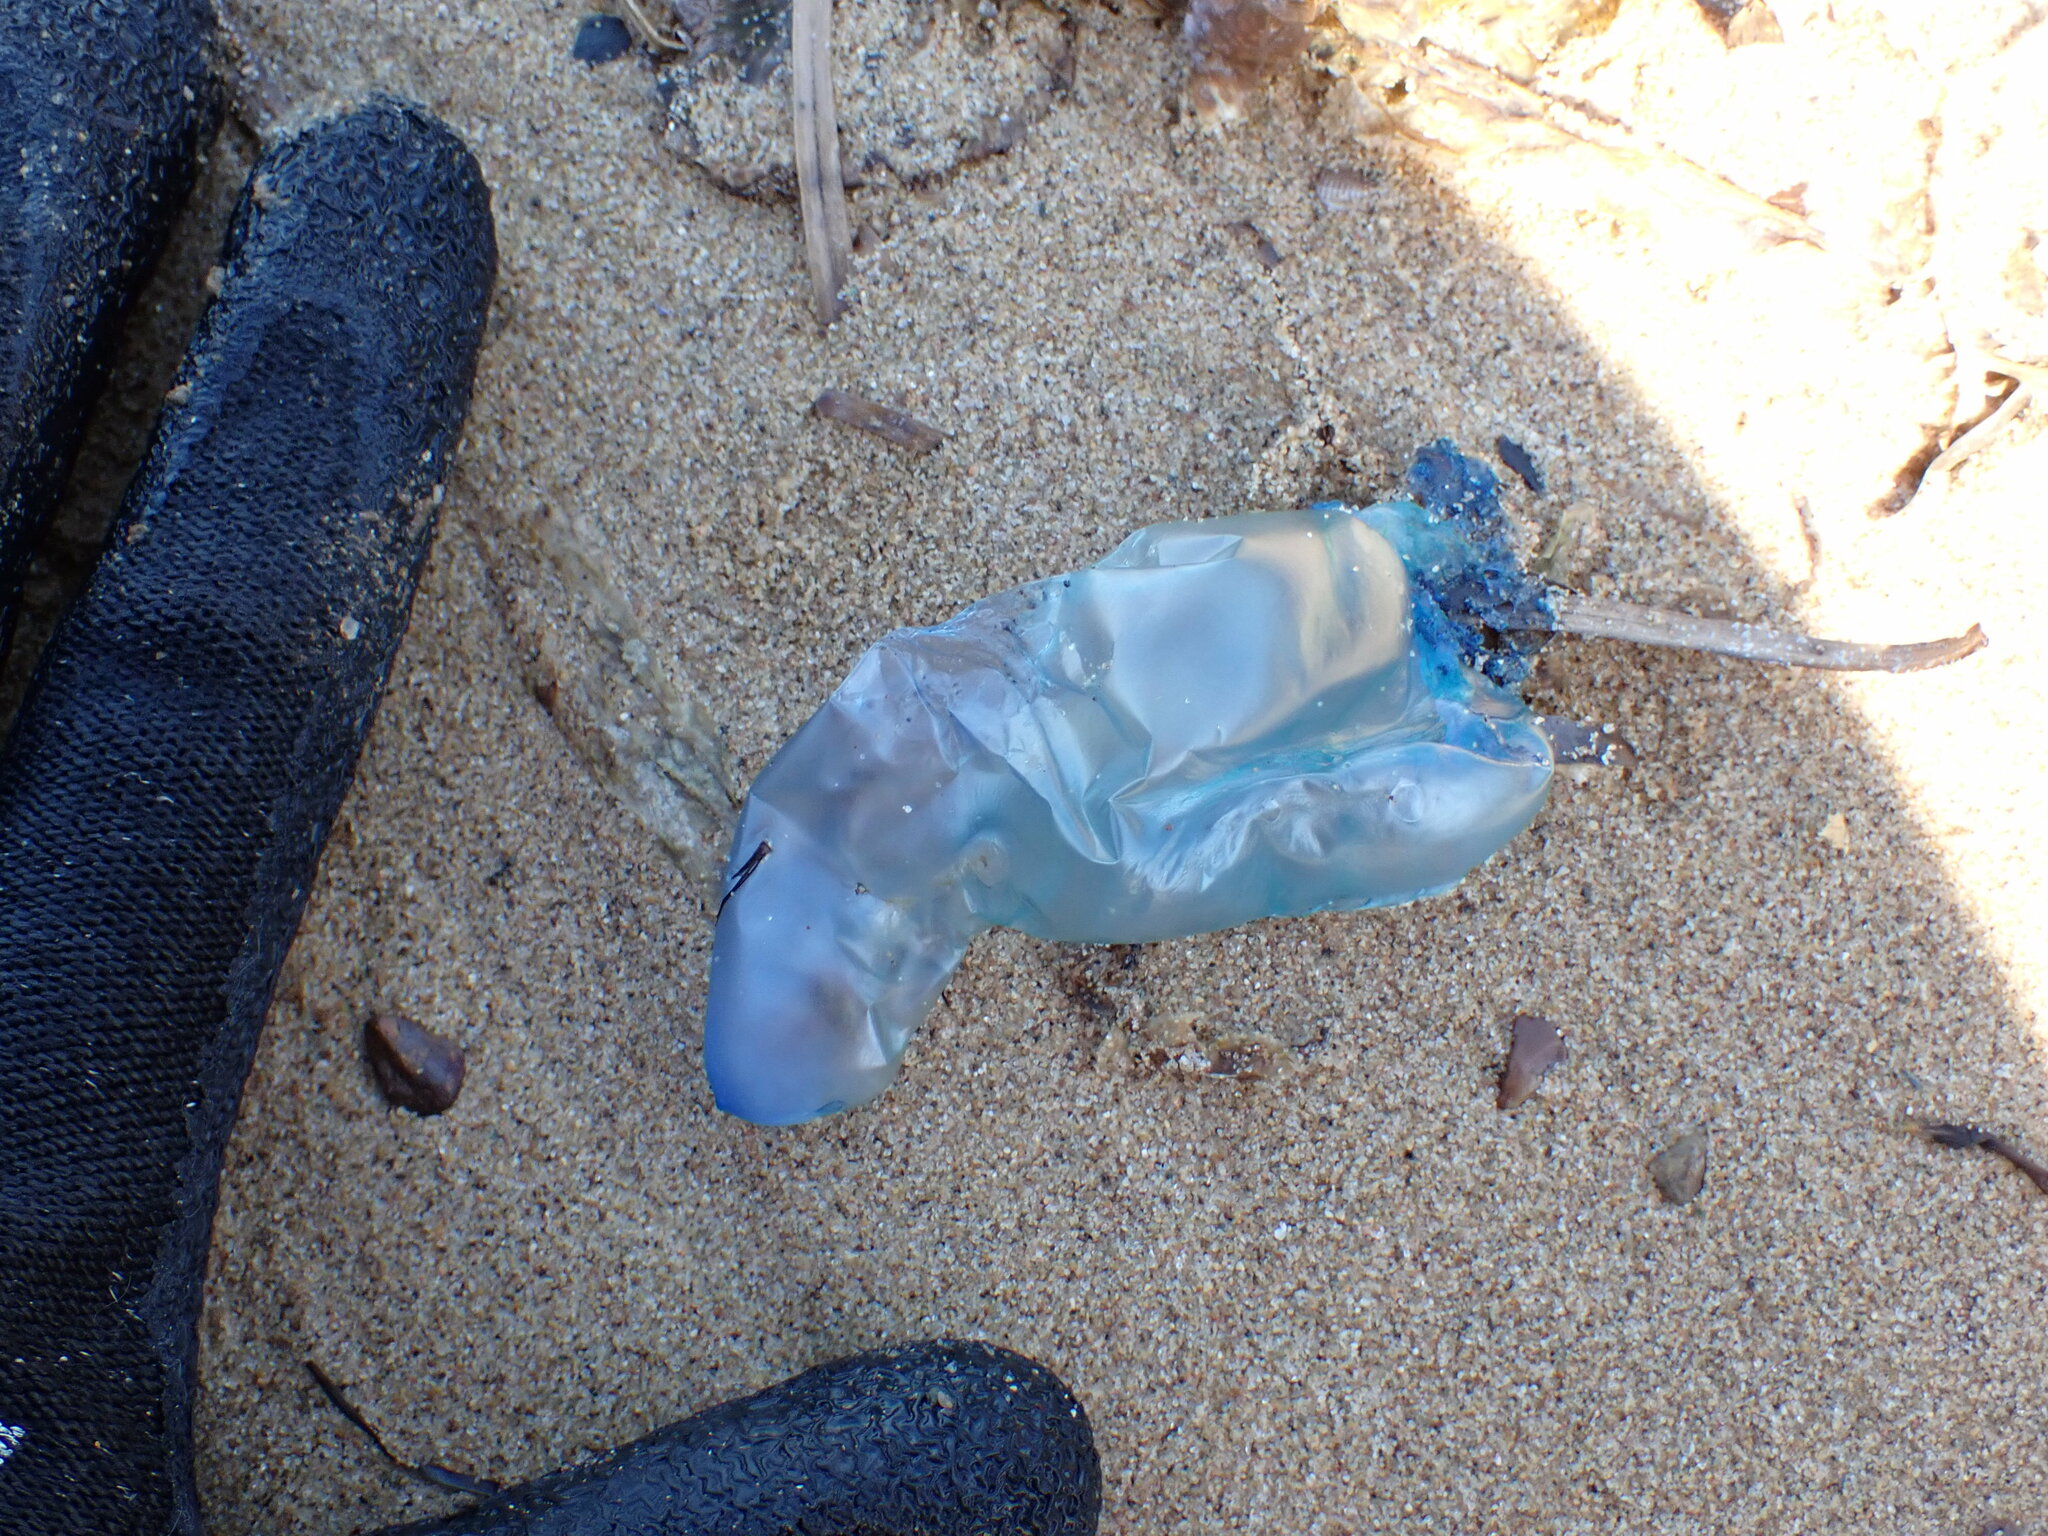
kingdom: Animalia
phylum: Cnidaria
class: Hydrozoa
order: Siphonophorae
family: Physaliidae
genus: Physalia
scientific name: Physalia physalis
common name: Portuguese man-of-war
